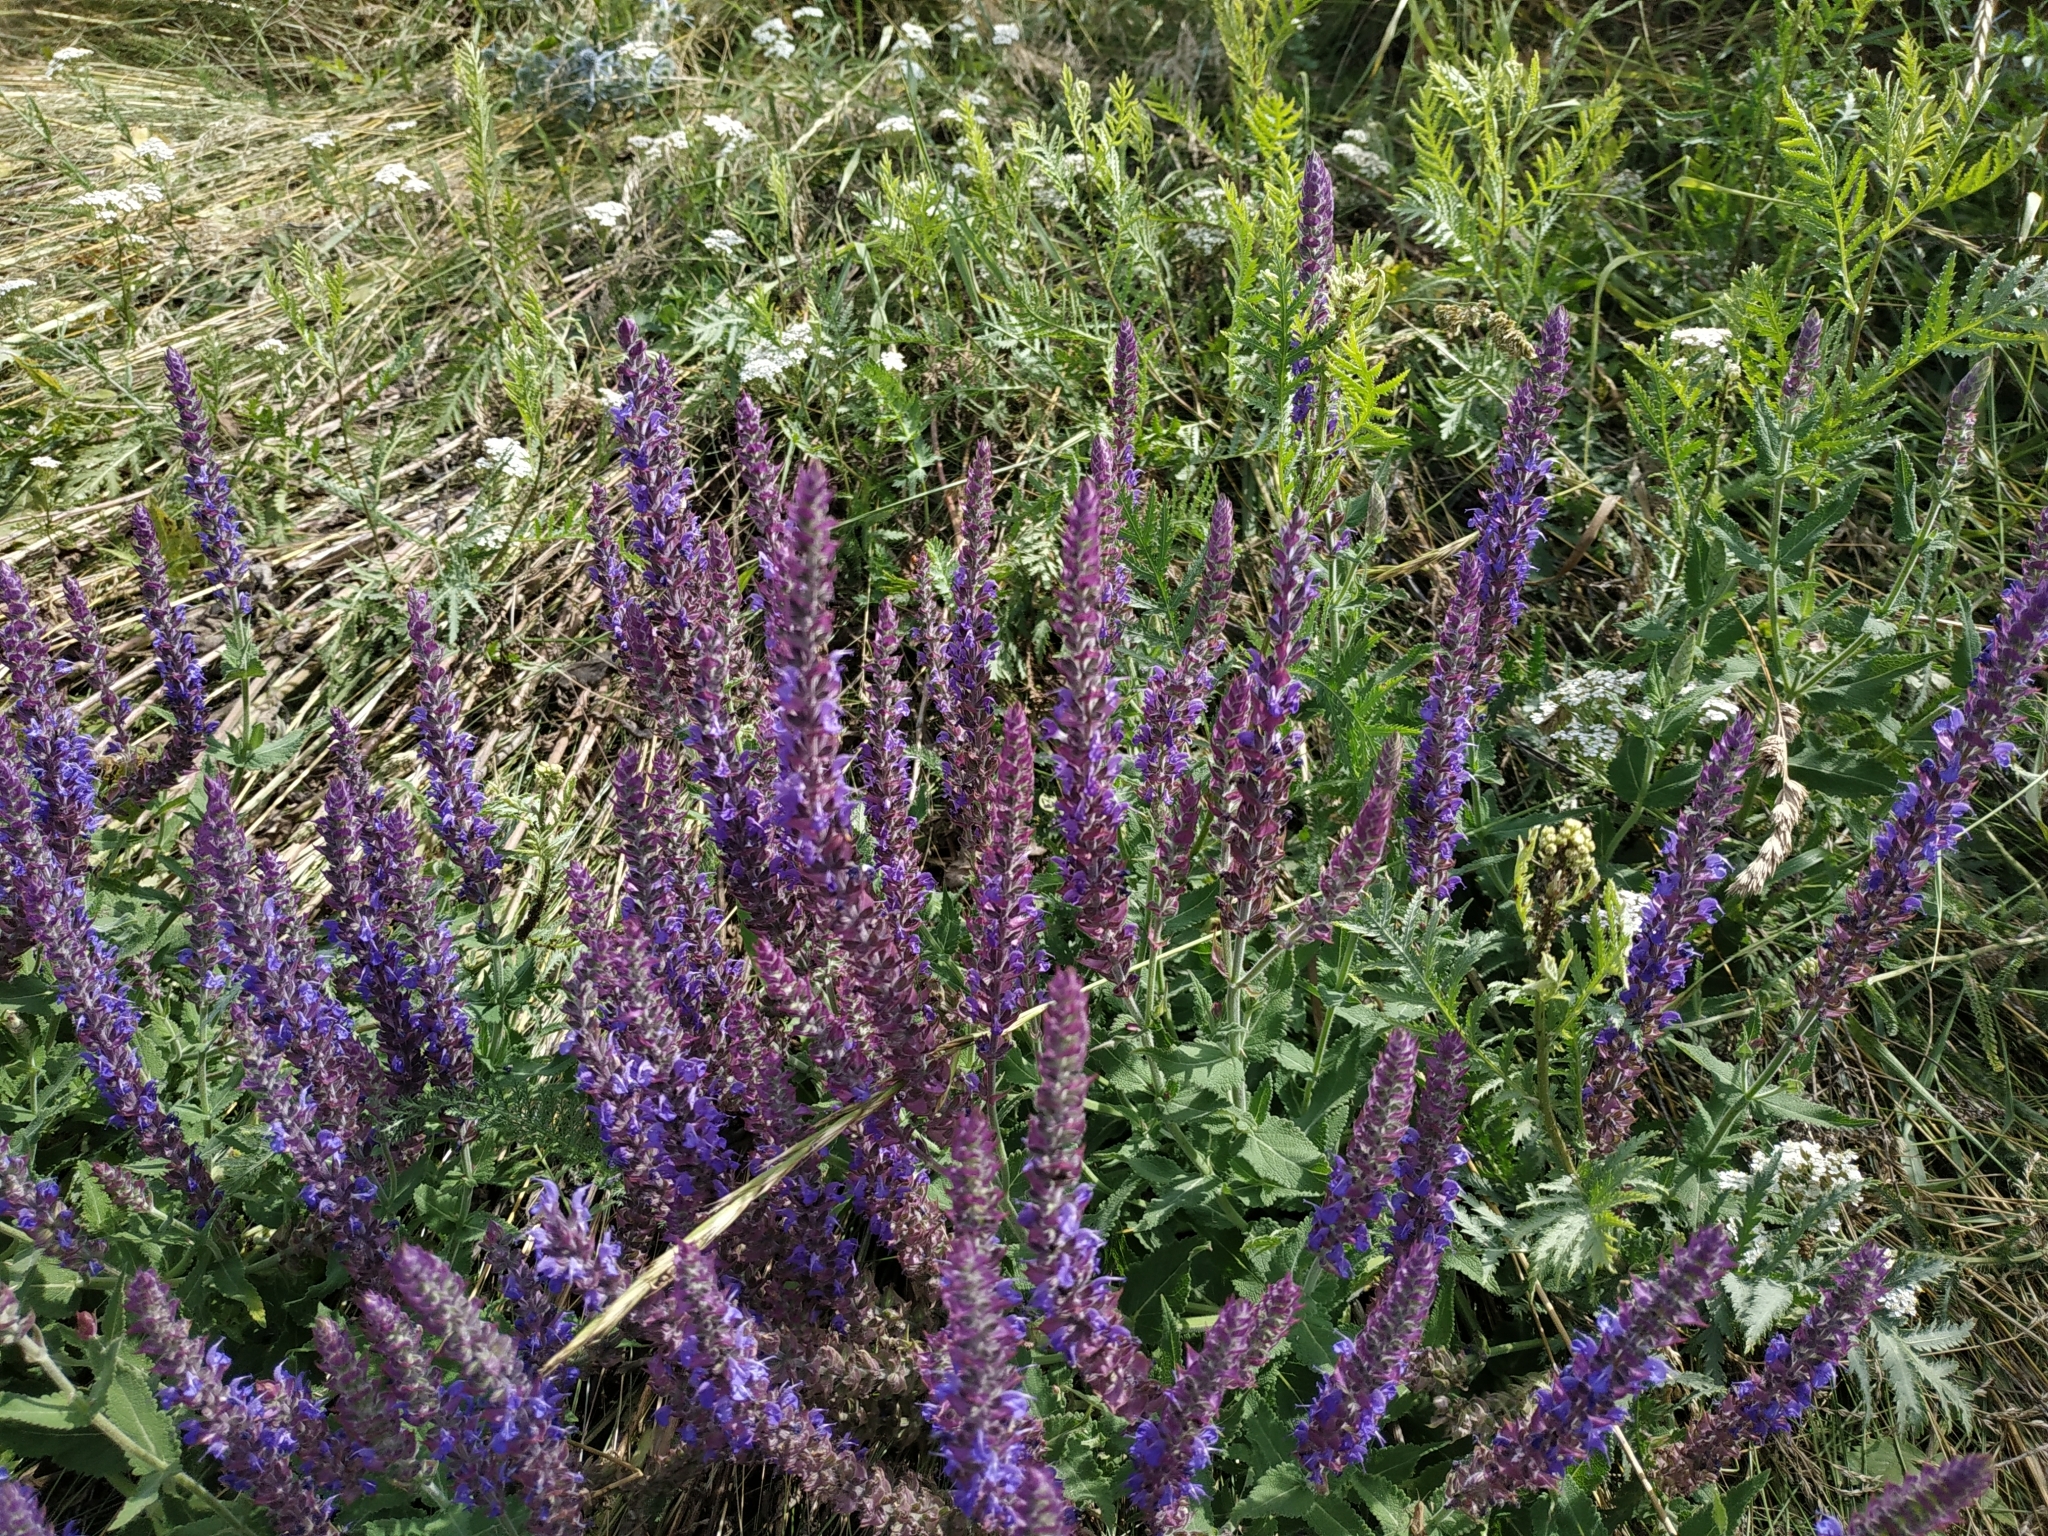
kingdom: Plantae
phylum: Tracheophyta
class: Magnoliopsida
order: Lamiales
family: Lamiaceae
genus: Salvia
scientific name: Salvia nemorosa
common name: Balkan clary
